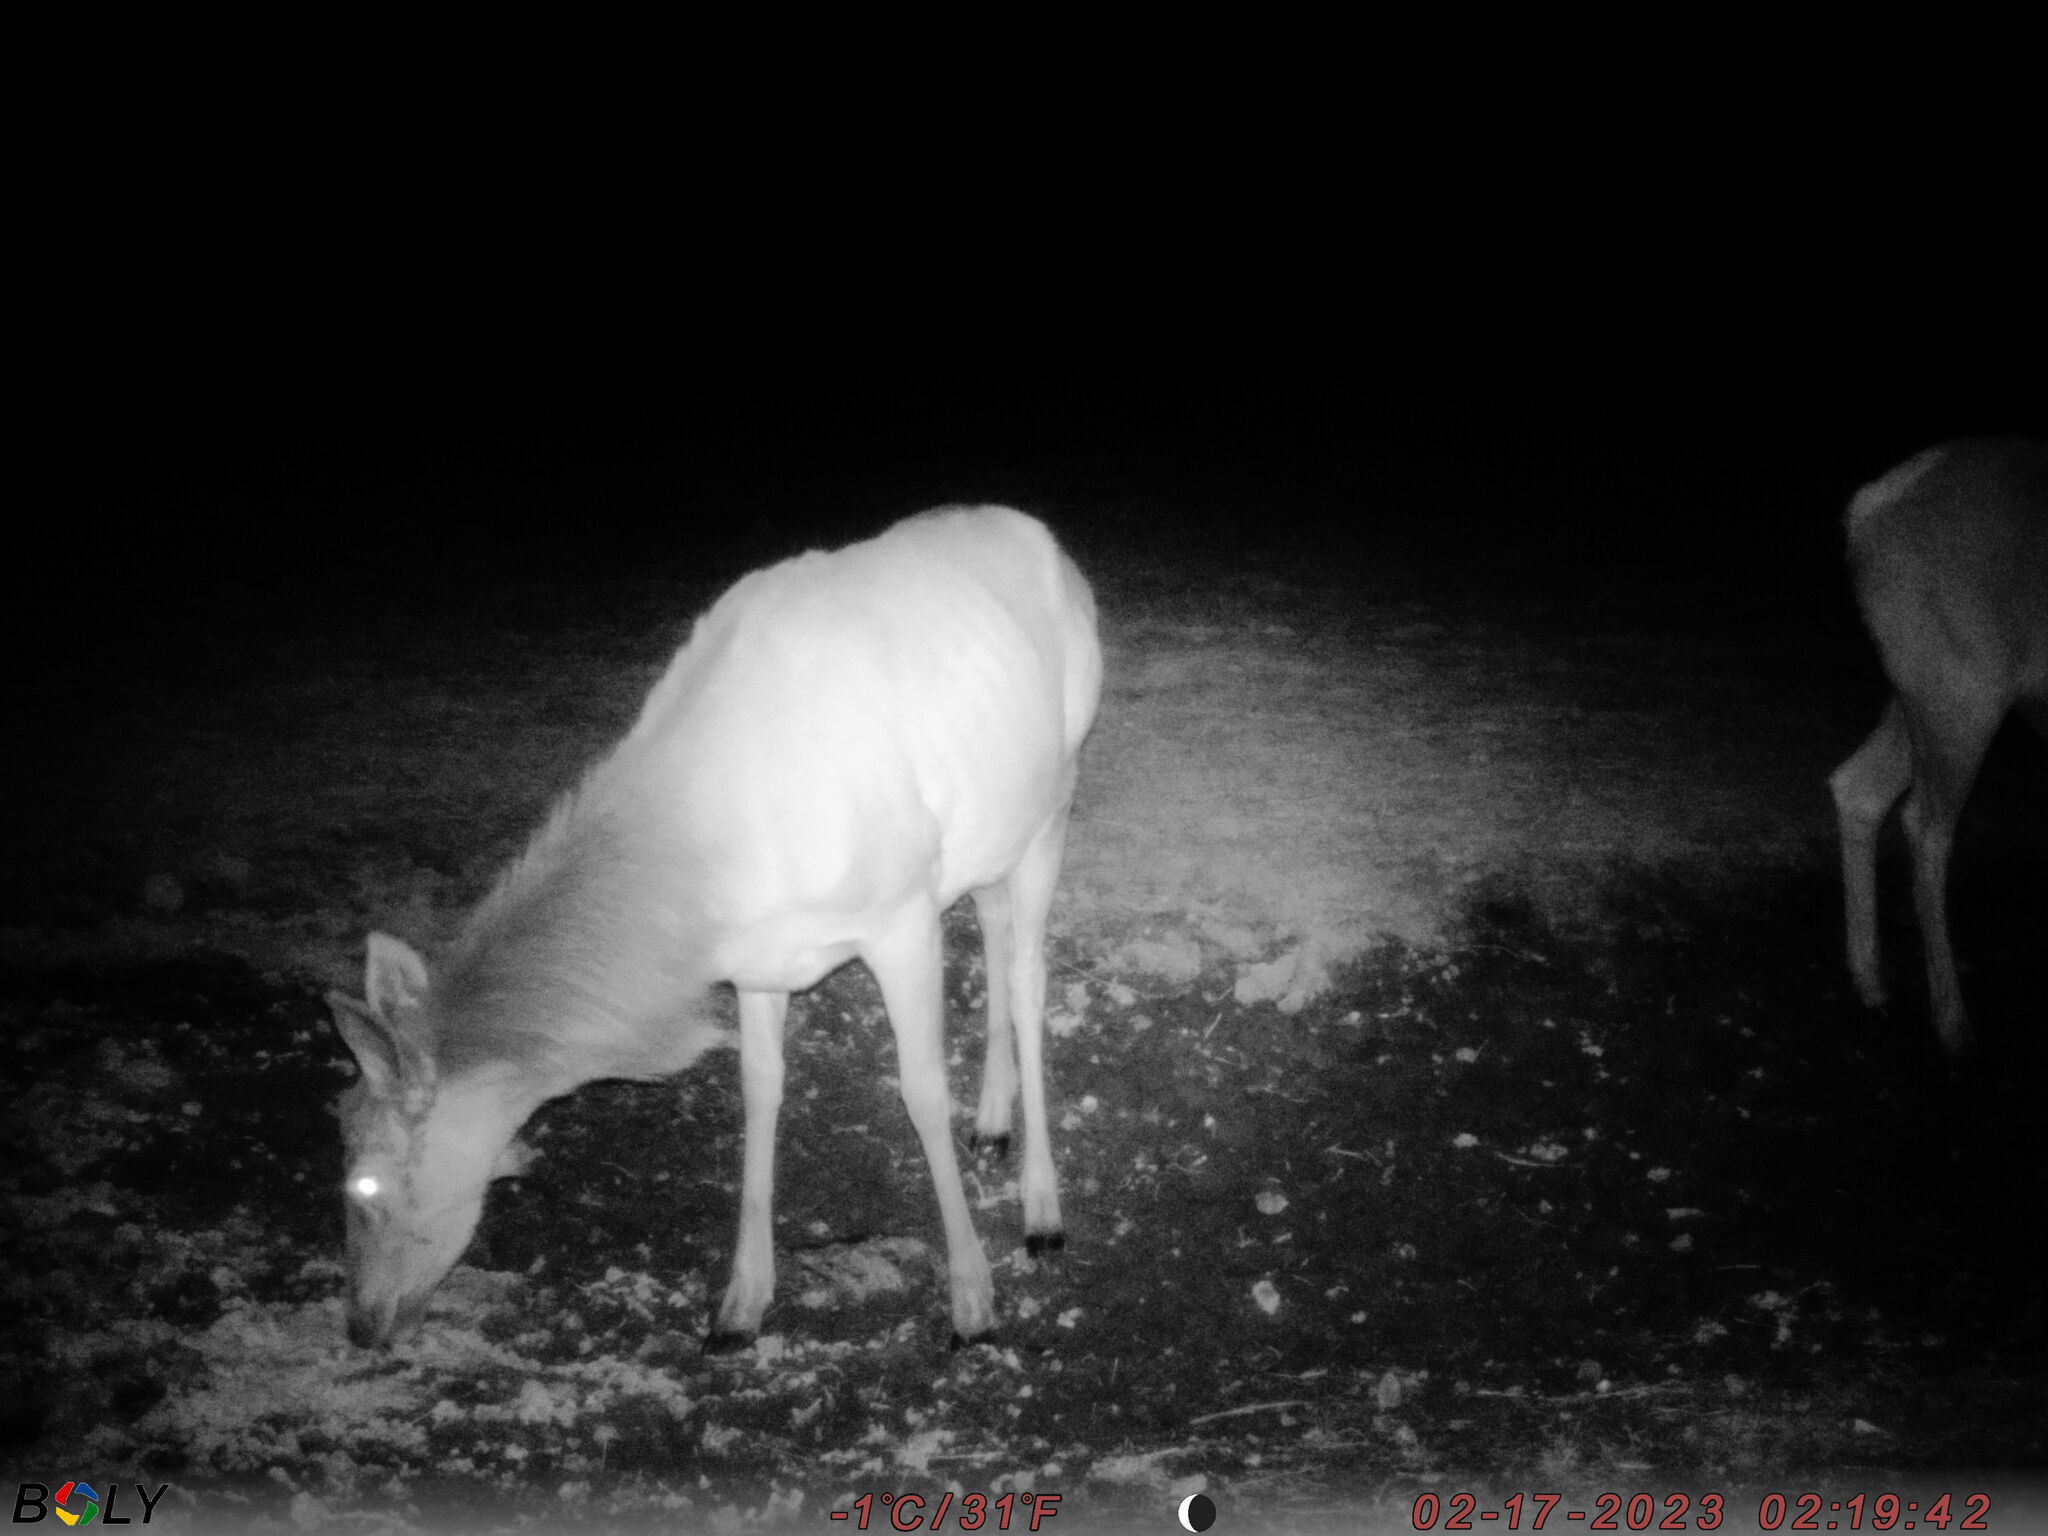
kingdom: Animalia
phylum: Chordata
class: Mammalia
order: Artiodactyla
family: Cervidae
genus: Cervus
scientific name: Cervus elaphus
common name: Red deer
